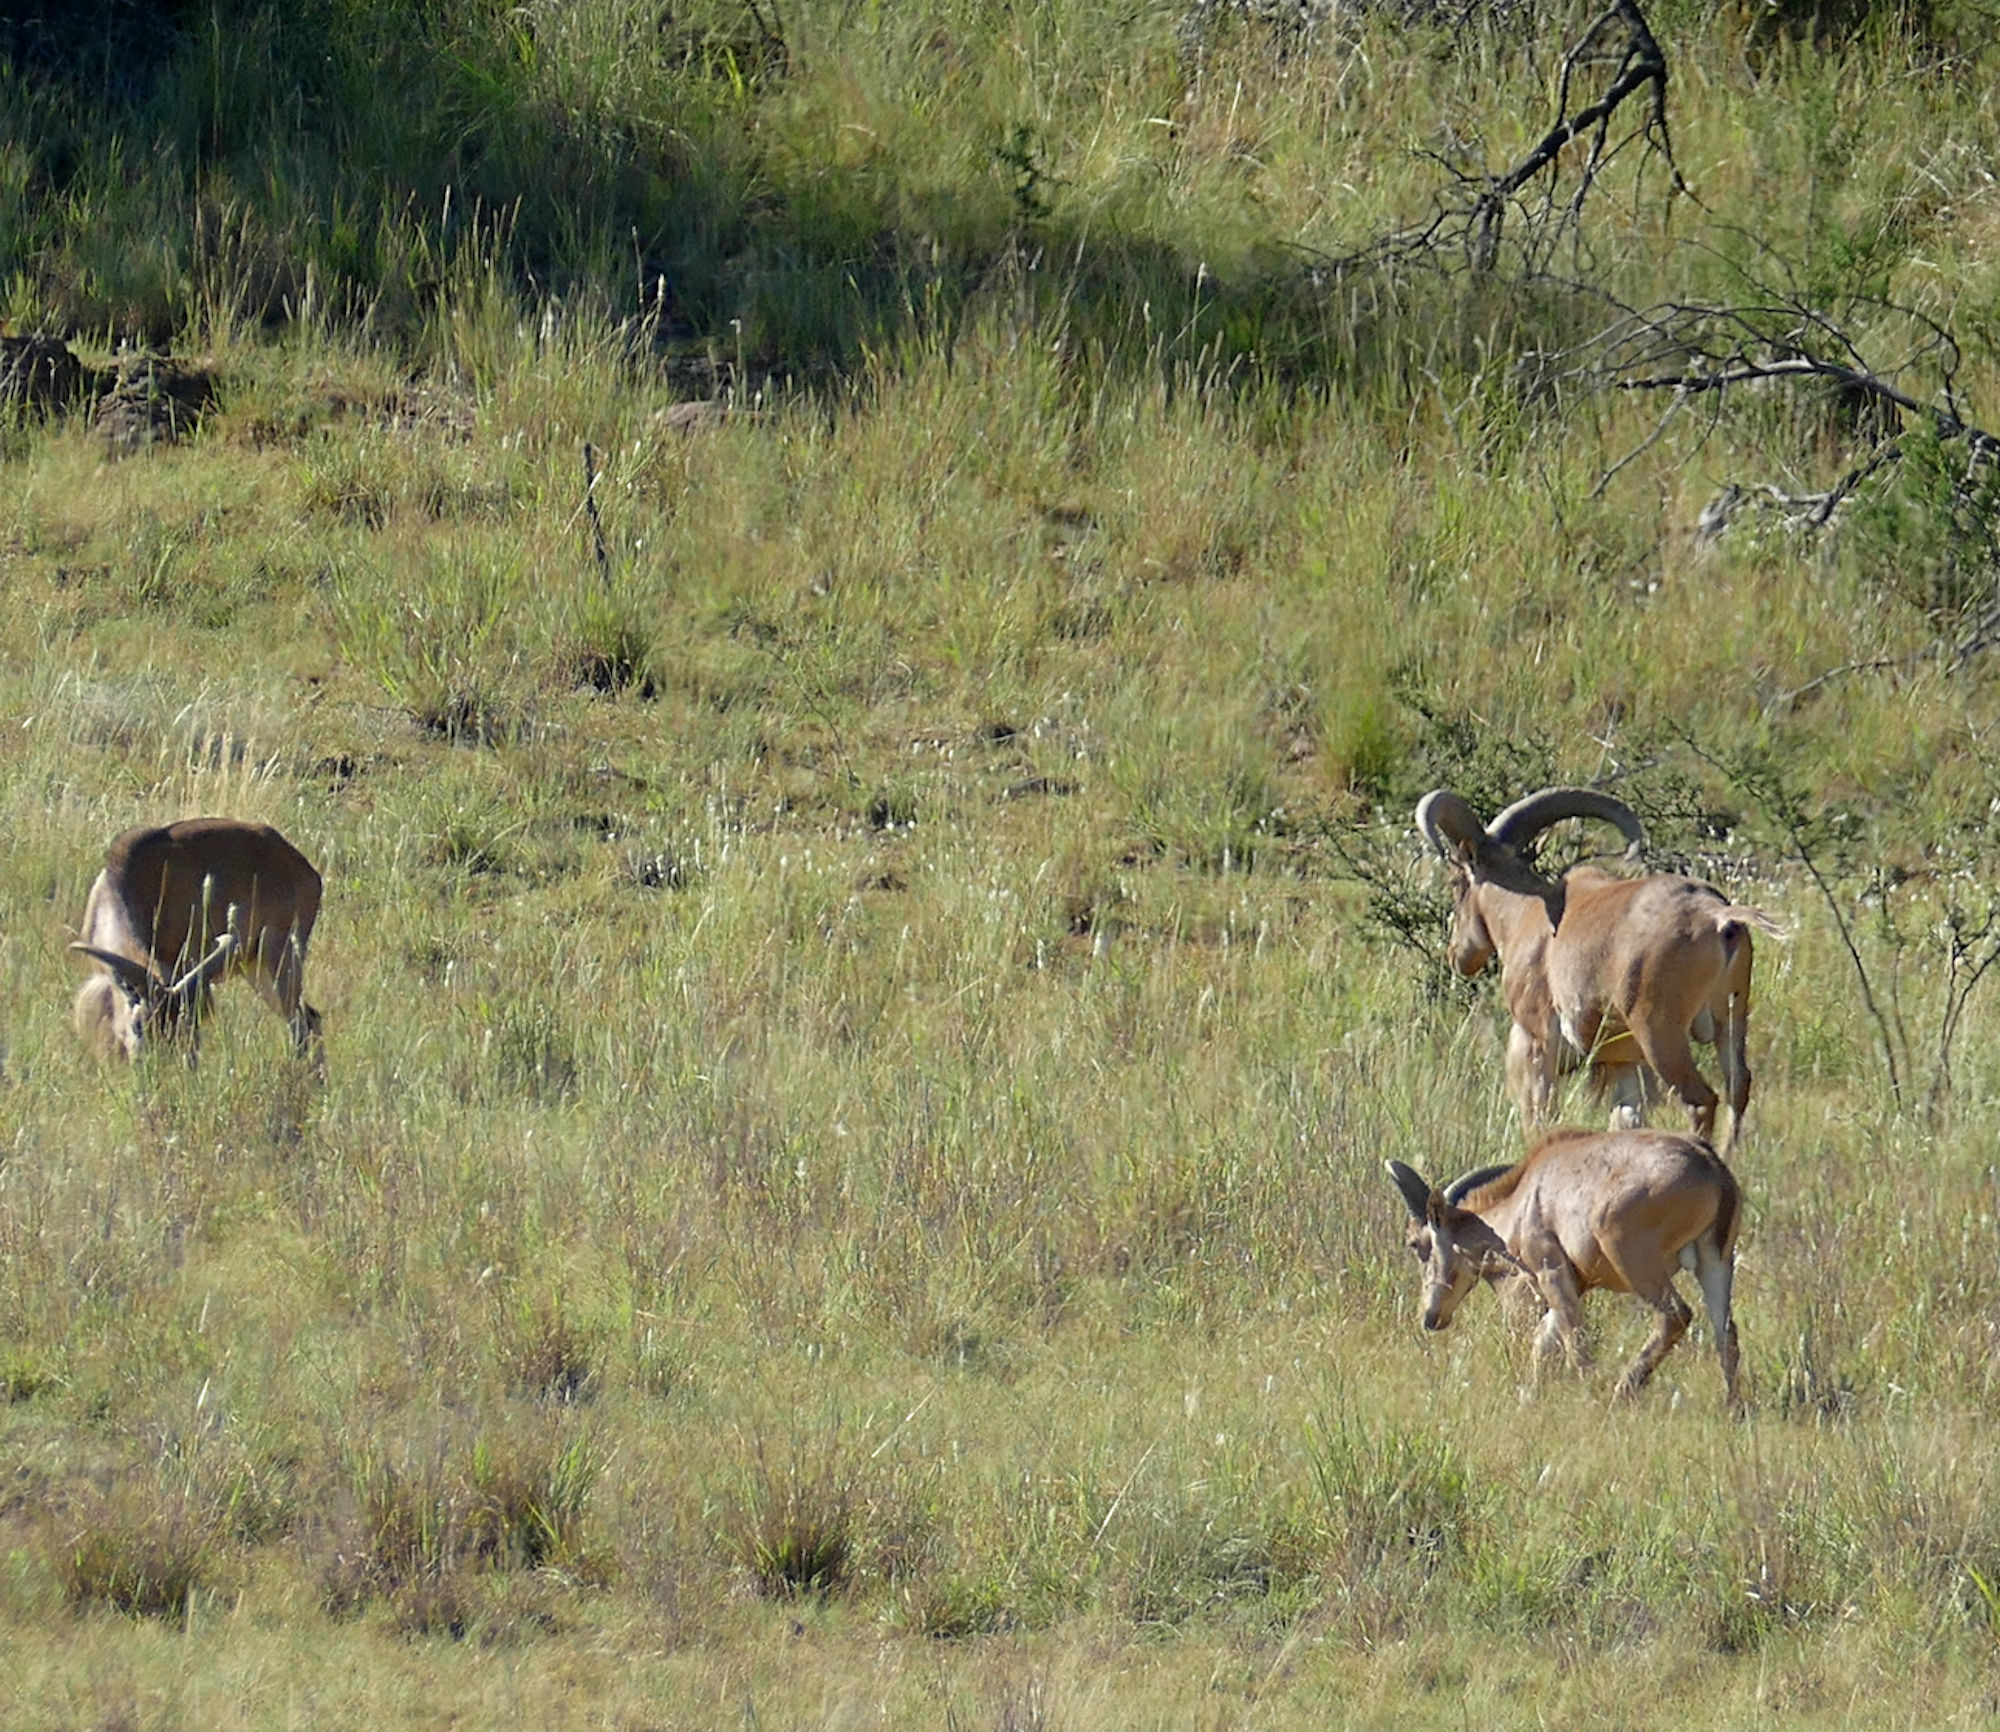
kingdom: Animalia
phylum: Chordata
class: Mammalia
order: Artiodactyla
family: Bovidae
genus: Ammotragus
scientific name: Ammotragus lervia
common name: Barbary sheep
